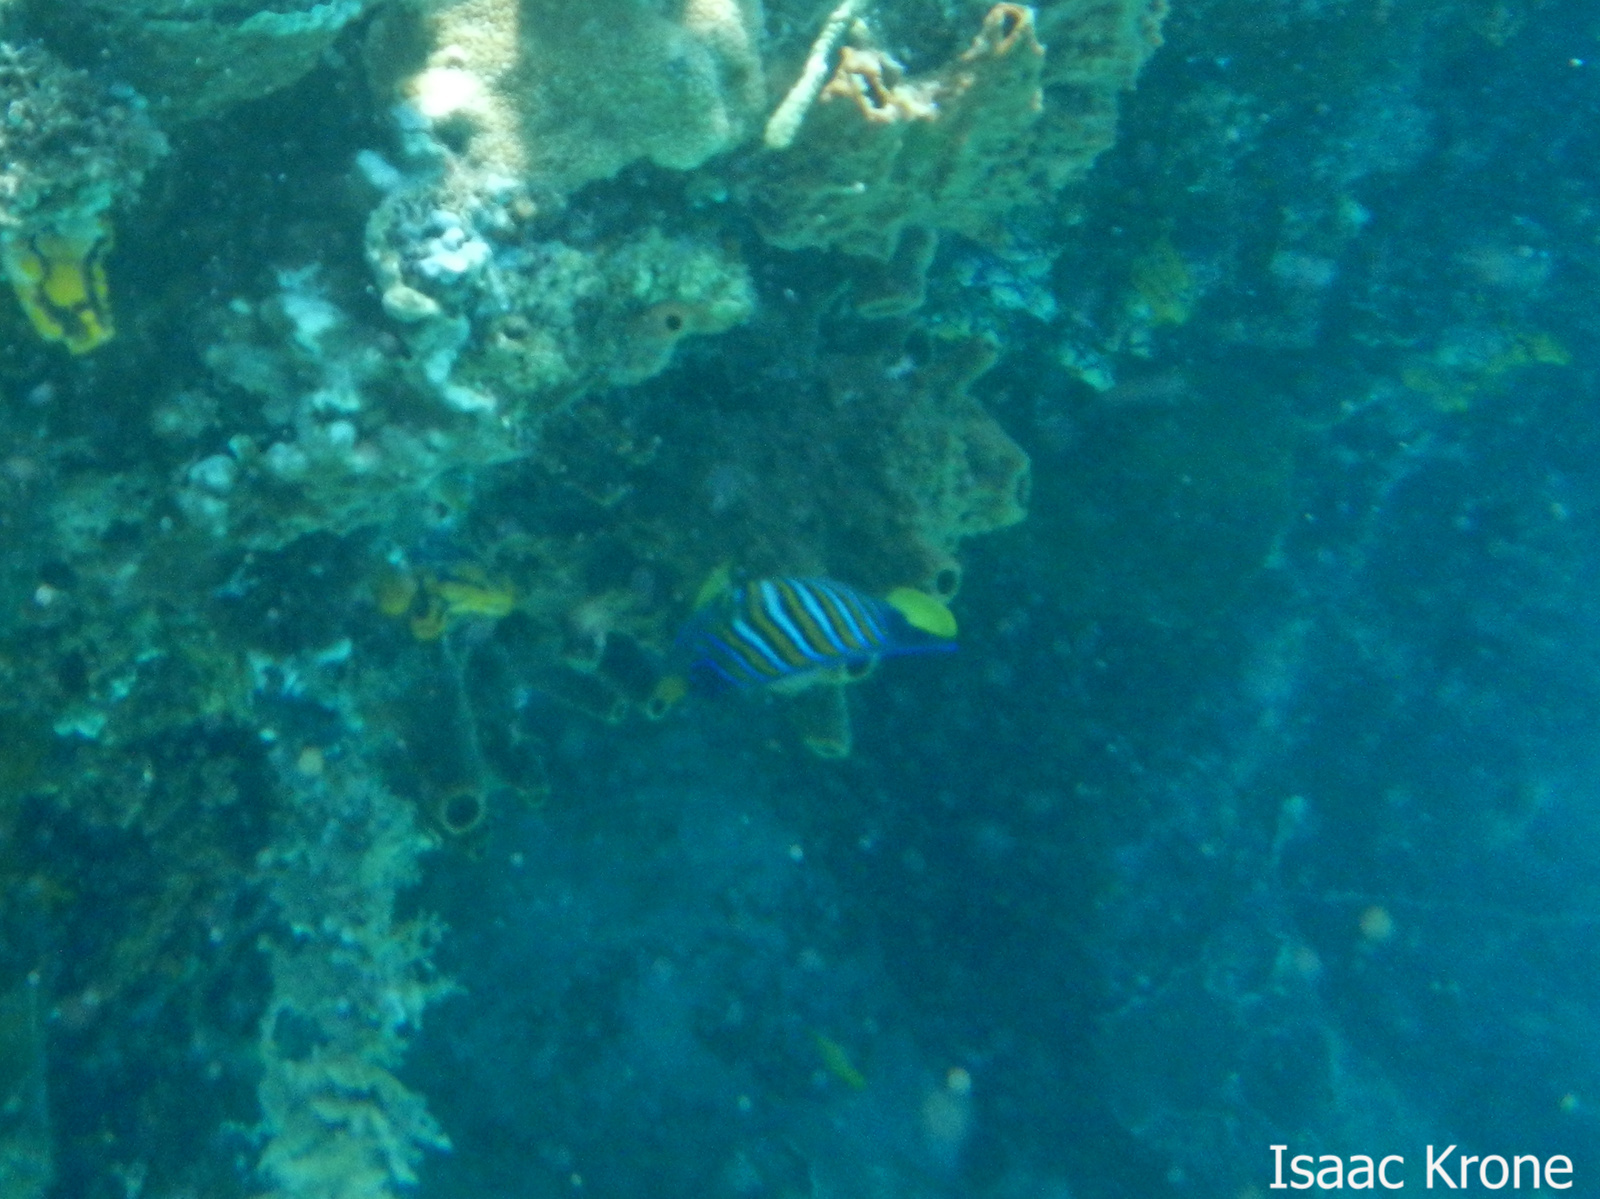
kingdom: Animalia
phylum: Chordata
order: Perciformes
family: Pomacanthidae
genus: Pygoplites
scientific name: Pygoplites diacanthus
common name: Regal angelfish
